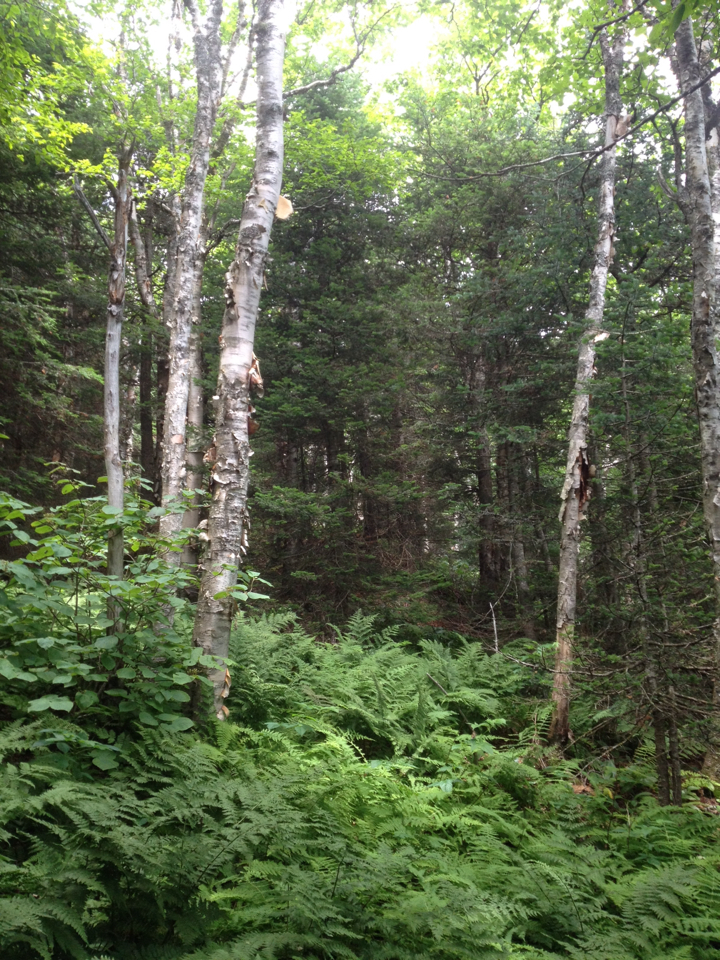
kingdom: Plantae
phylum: Tracheophyta
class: Magnoliopsida
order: Fagales
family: Betulaceae
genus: Betula
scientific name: Betula cordifolia
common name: Mountain white birch
